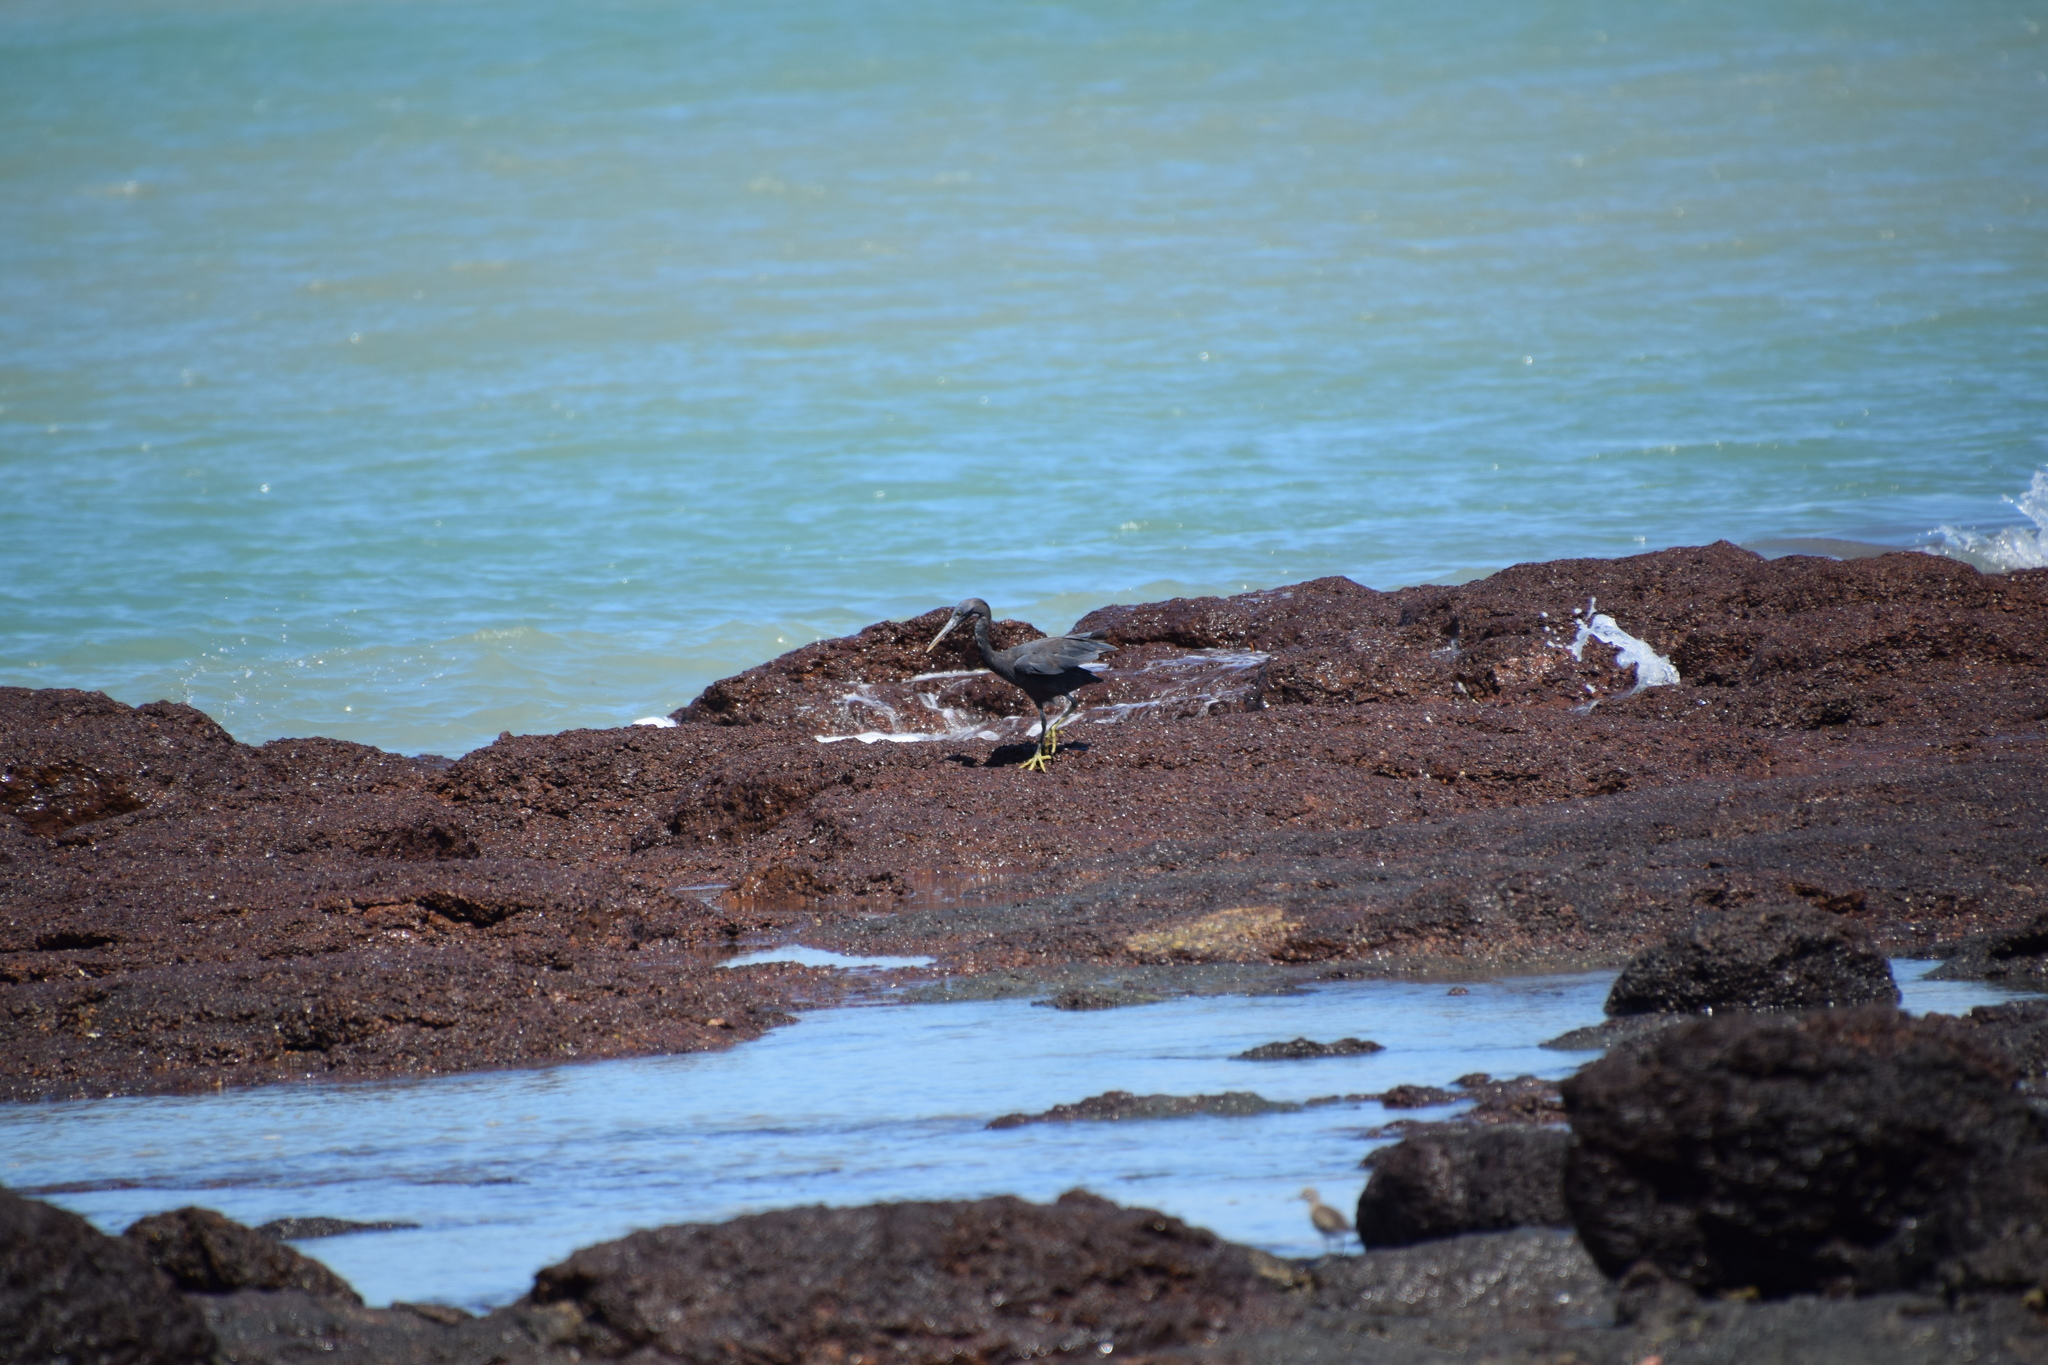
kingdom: Animalia
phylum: Chordata
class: Aves
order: Pelecaniformes
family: Ardeidae
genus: Egretta
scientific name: Egretta sacra
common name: Pacific reef heron
